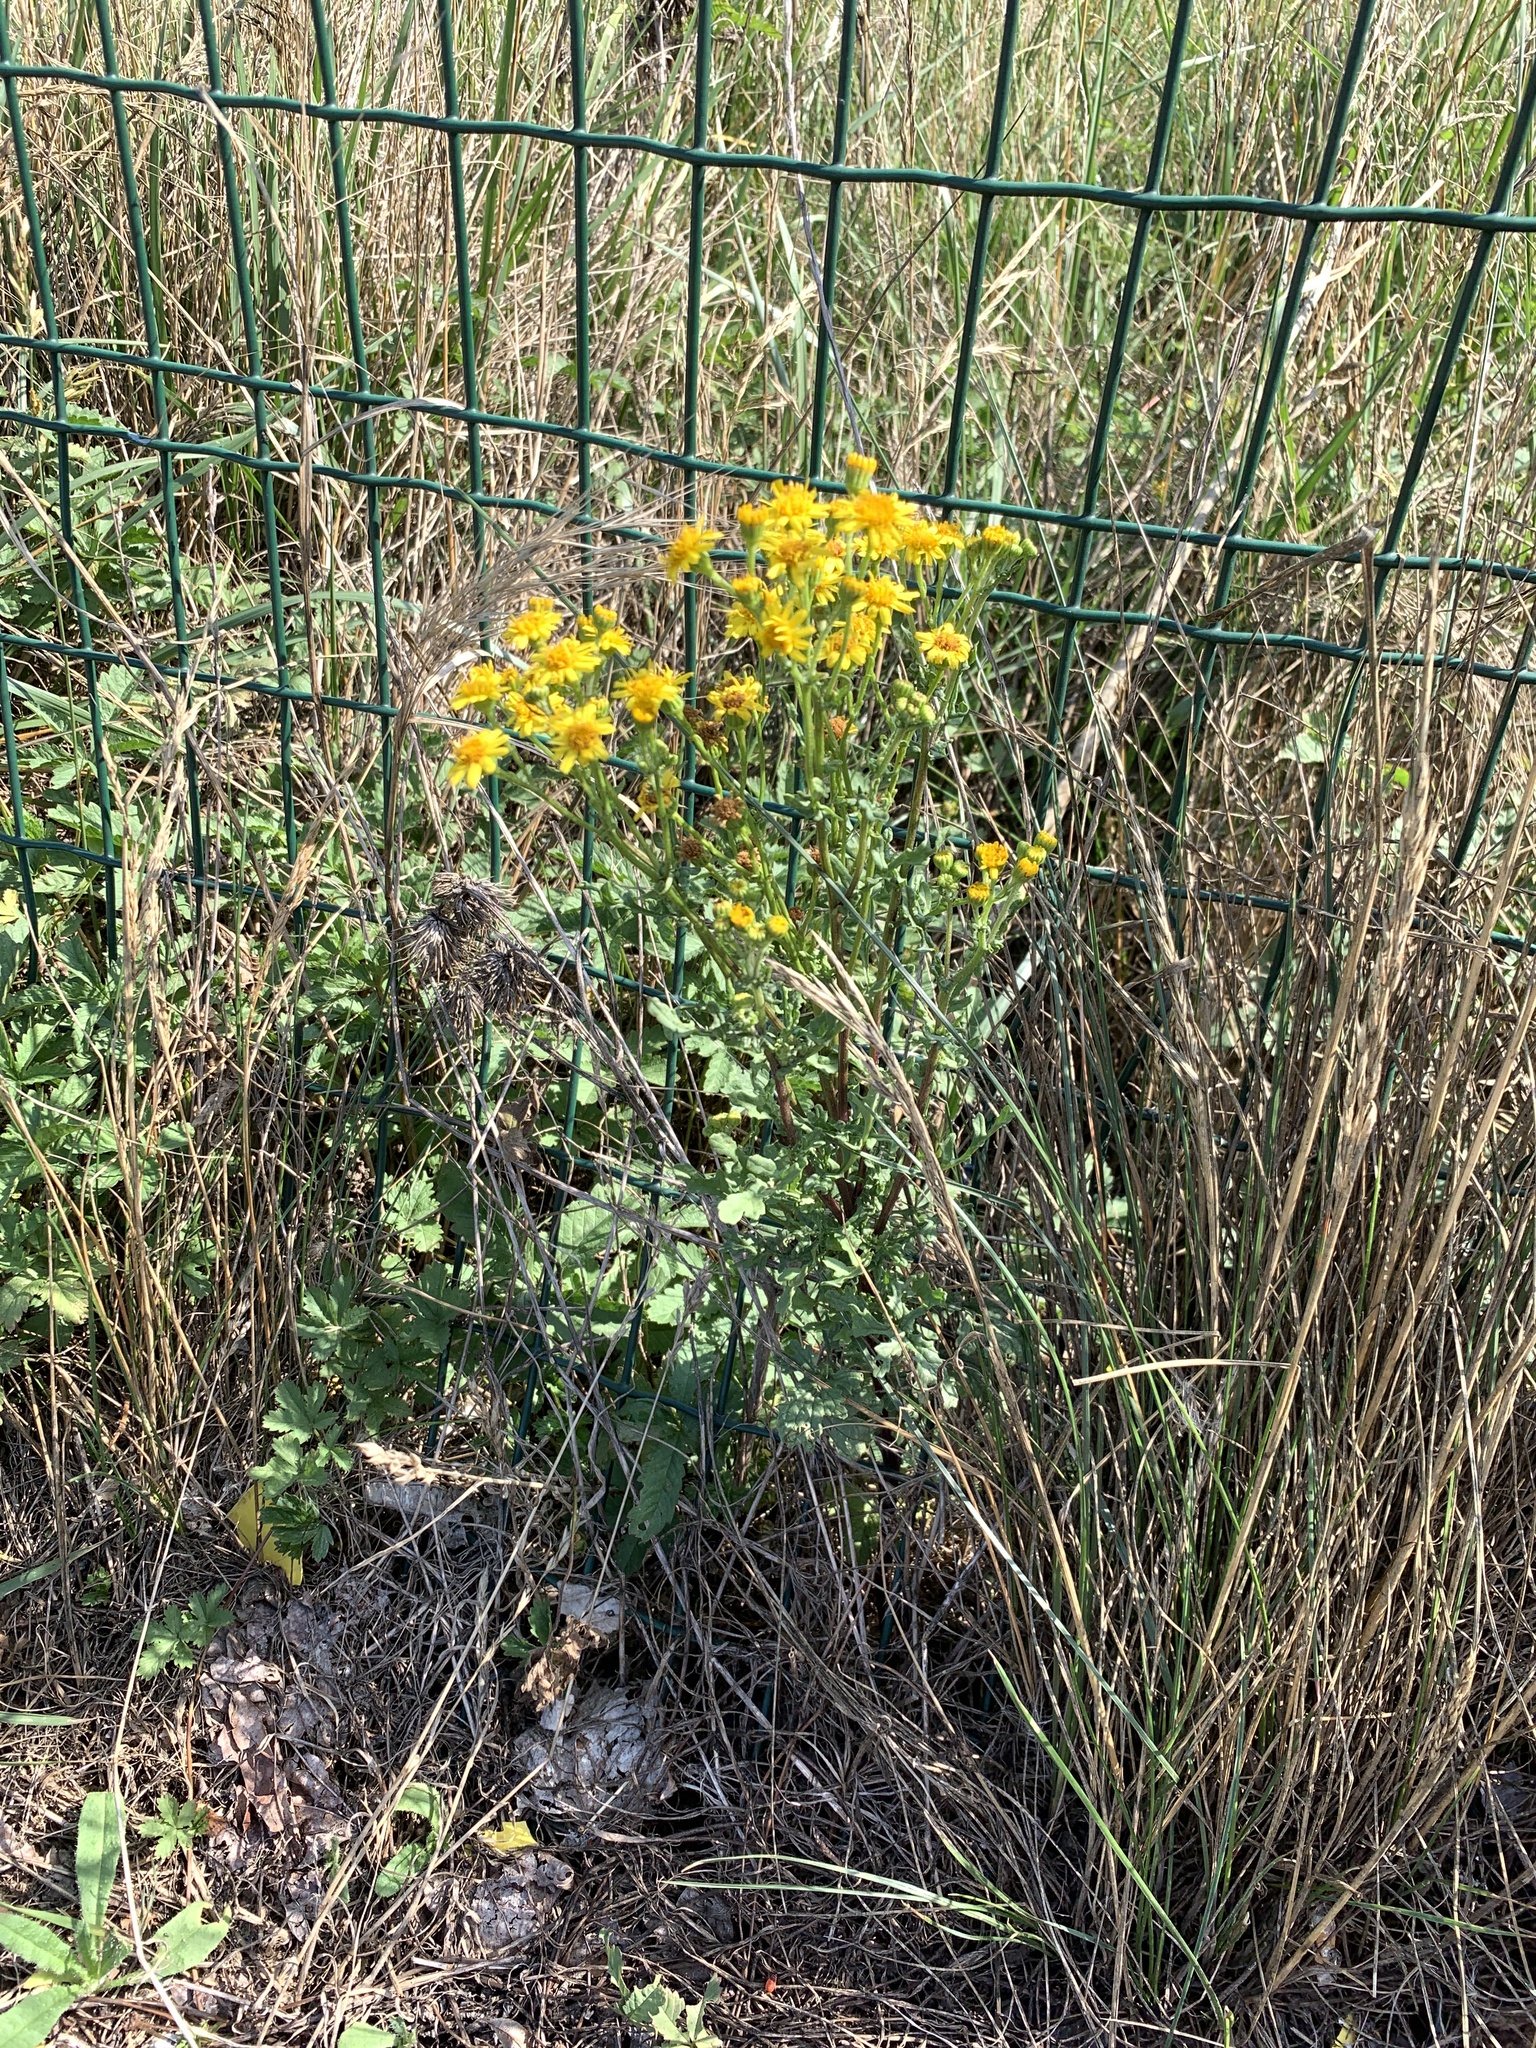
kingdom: Plantae
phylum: Tracheophyta
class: Magnoliopsida
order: Asterales
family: Asteraceae
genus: Jacobaea
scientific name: Jacobaea vulgaris
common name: Stinking willie
